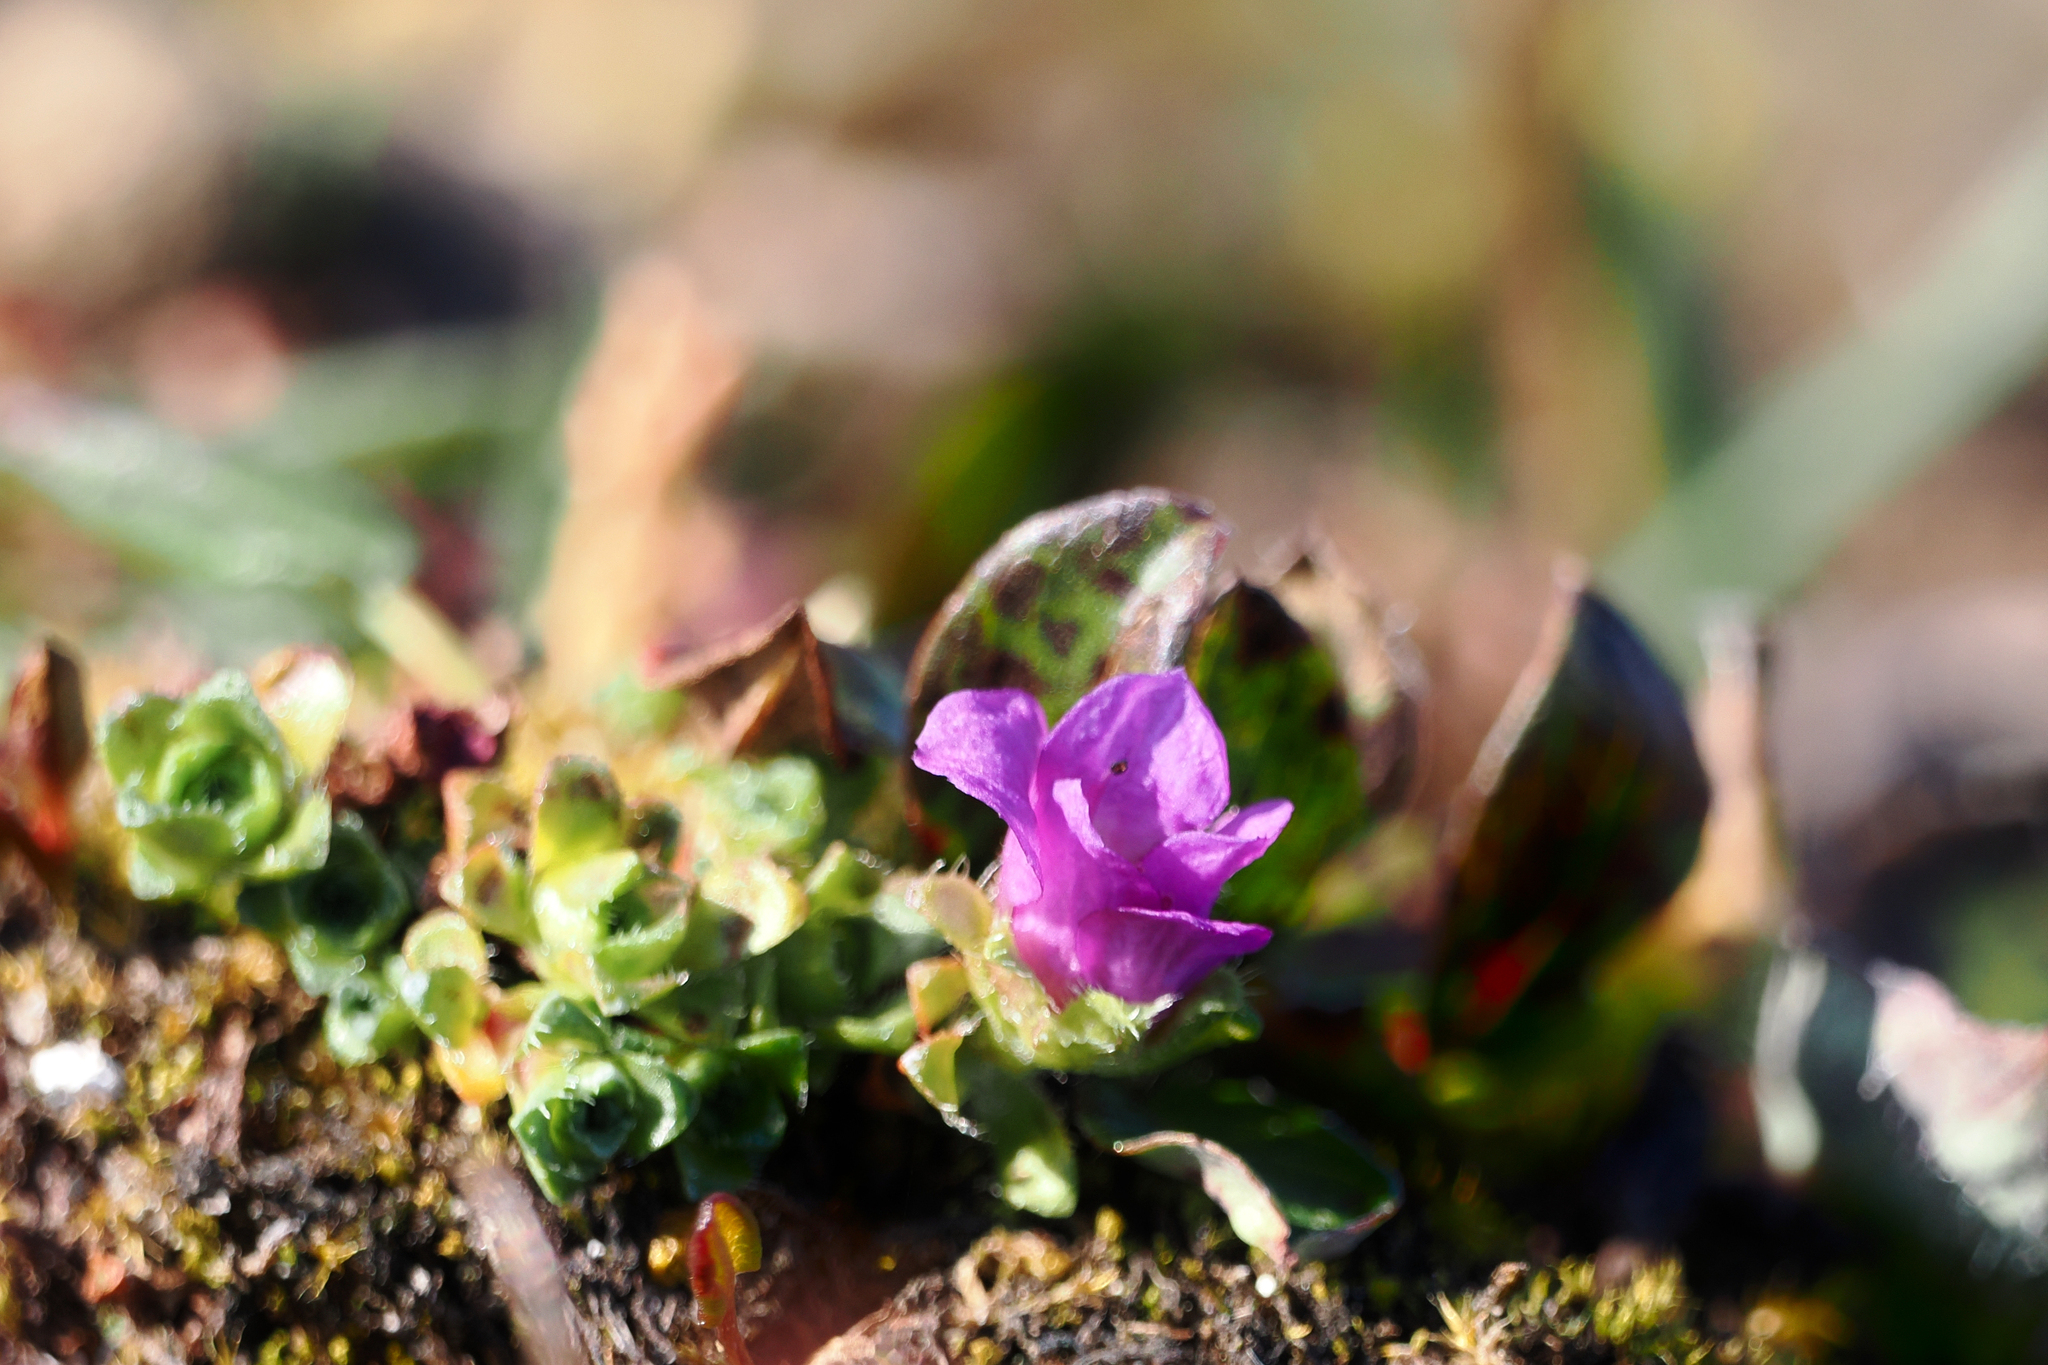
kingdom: Plantae
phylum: Tracheophyta
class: Magnoliopsida
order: Saxifragales
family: Saxifragaceae
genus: Saxifraga
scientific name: Saxifraga oppositifolia
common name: Purple saxifrage
